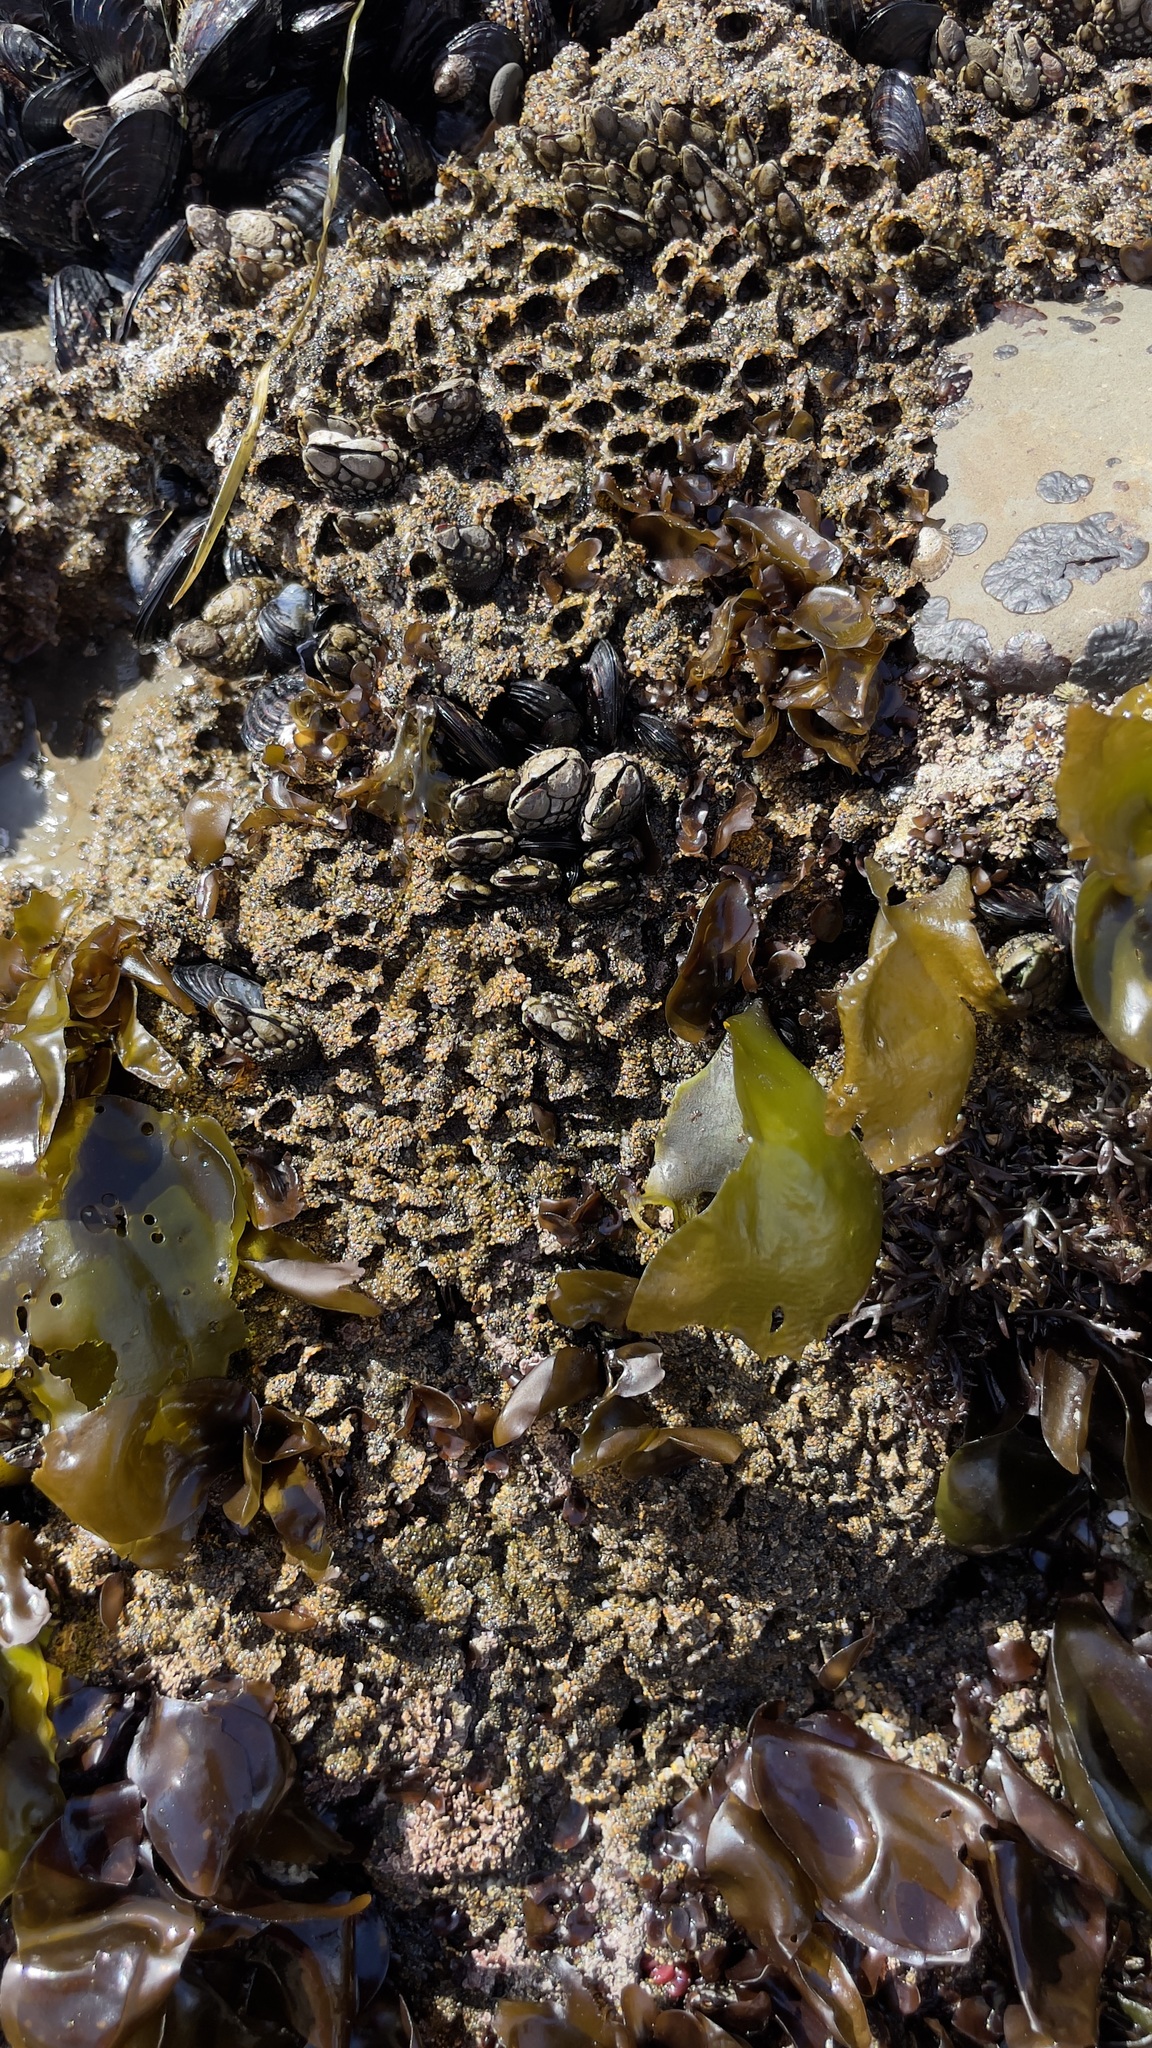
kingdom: Animalia
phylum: Annelida
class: Polychaeta
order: Sabellida
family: Sabellariidae
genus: Phragmatopoma
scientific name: Phragmatopoma californica
